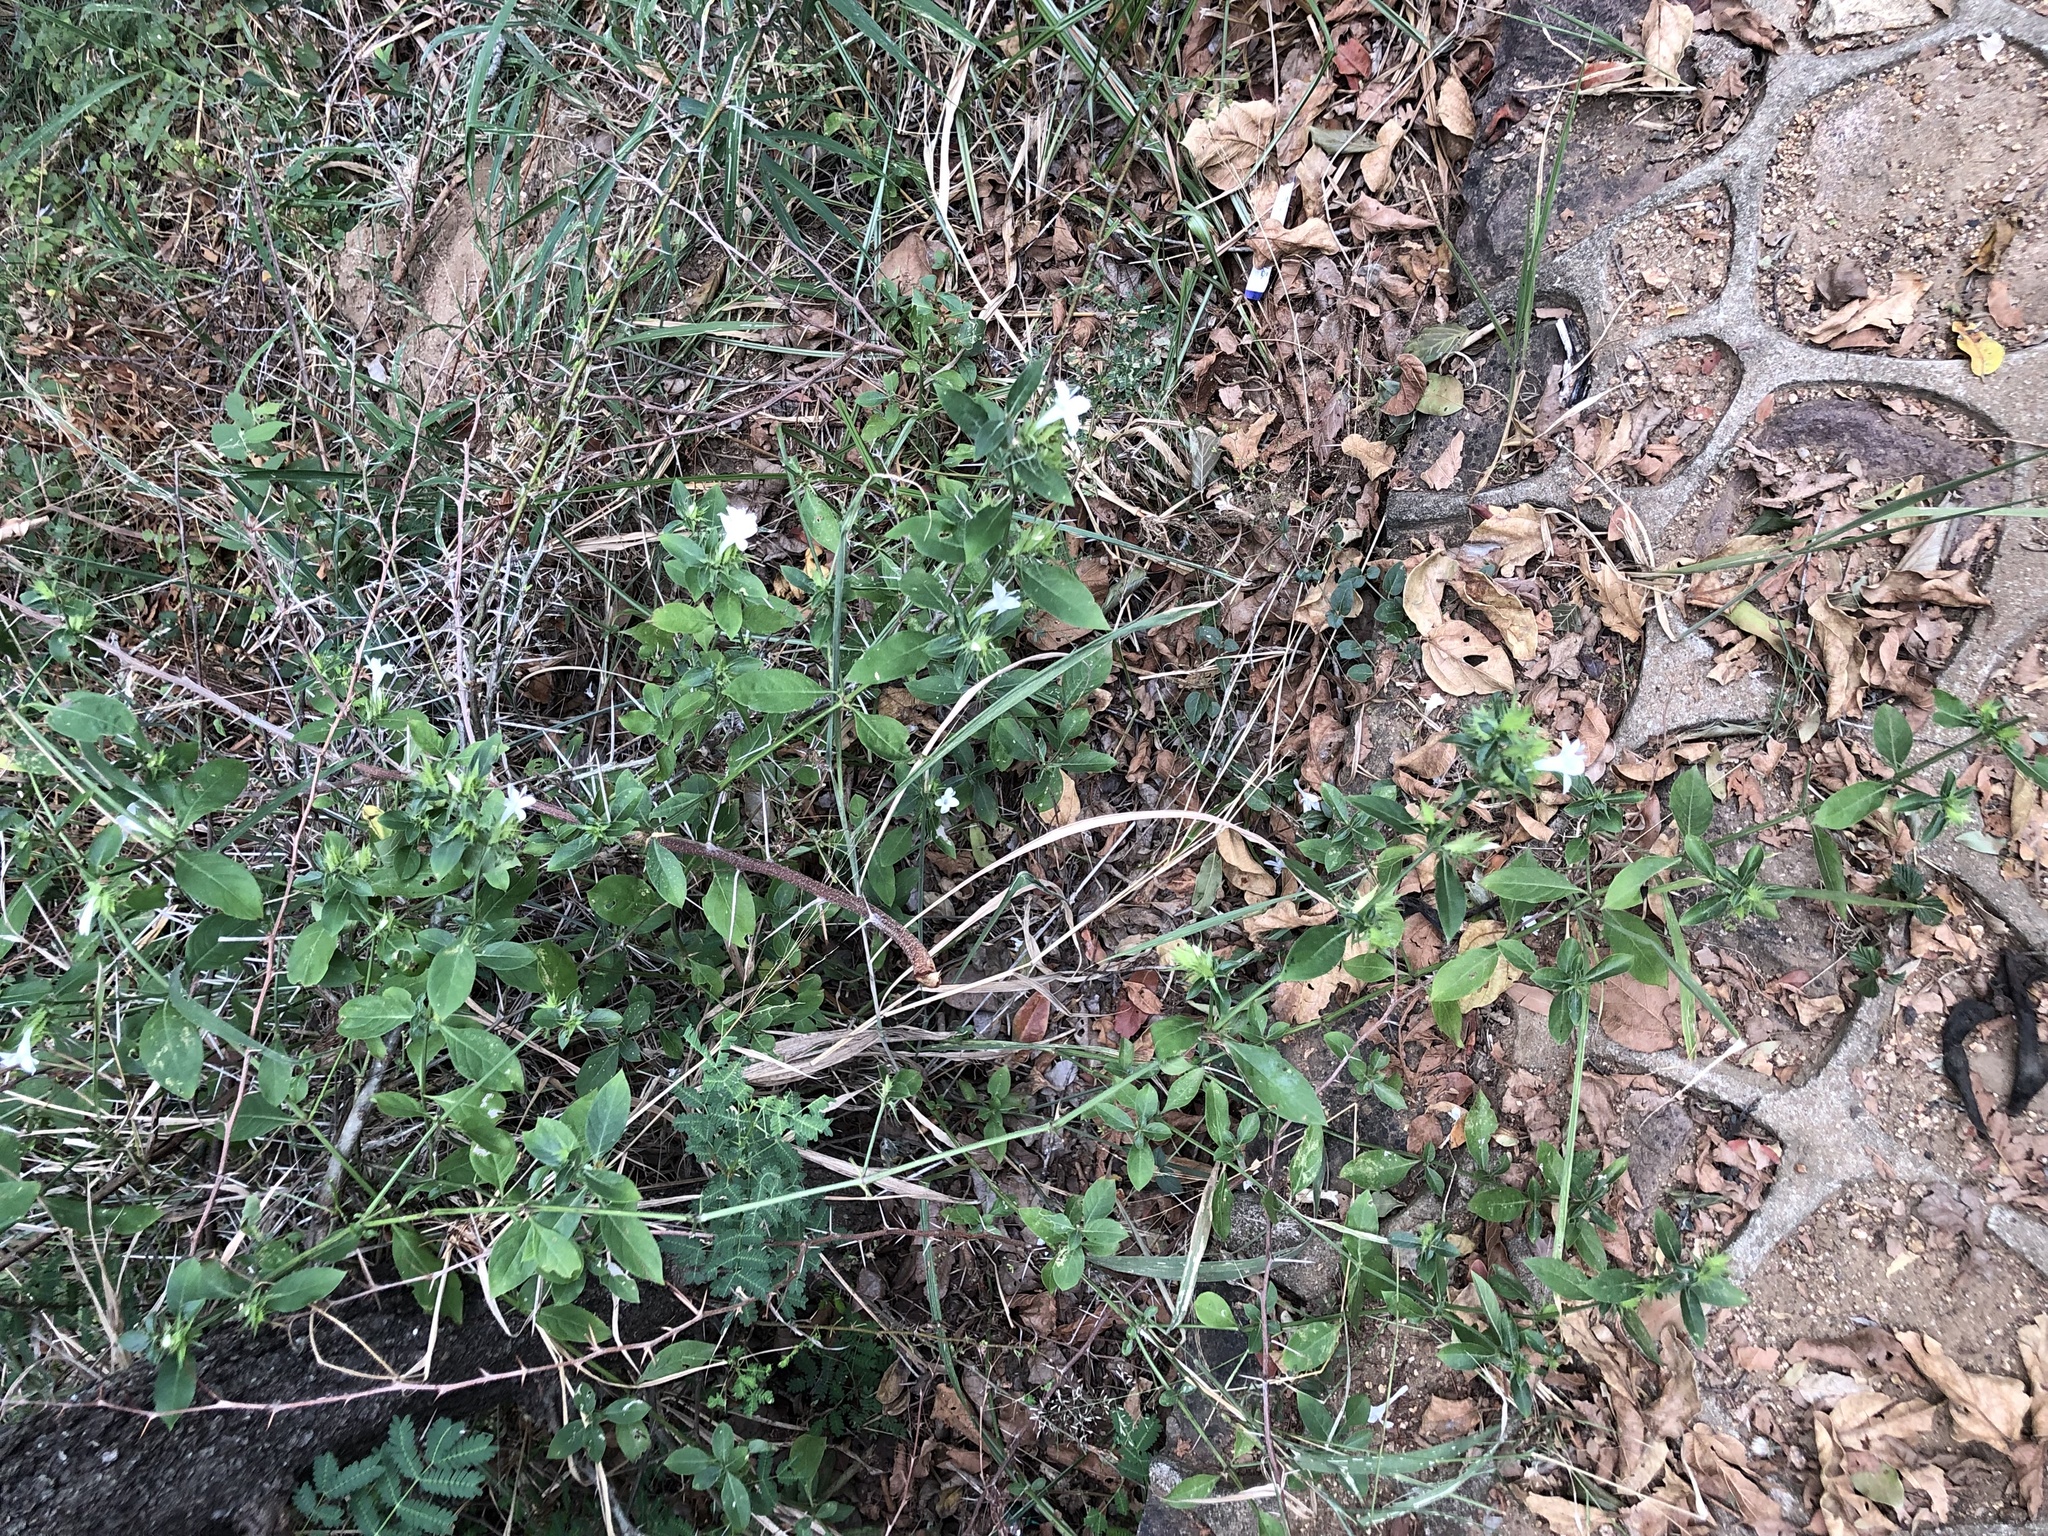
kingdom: Plantae
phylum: Tracheophyta
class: Magnoliopsida
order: Lamiales
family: Acanthaceae
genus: Barleria
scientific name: Barleria elegans
